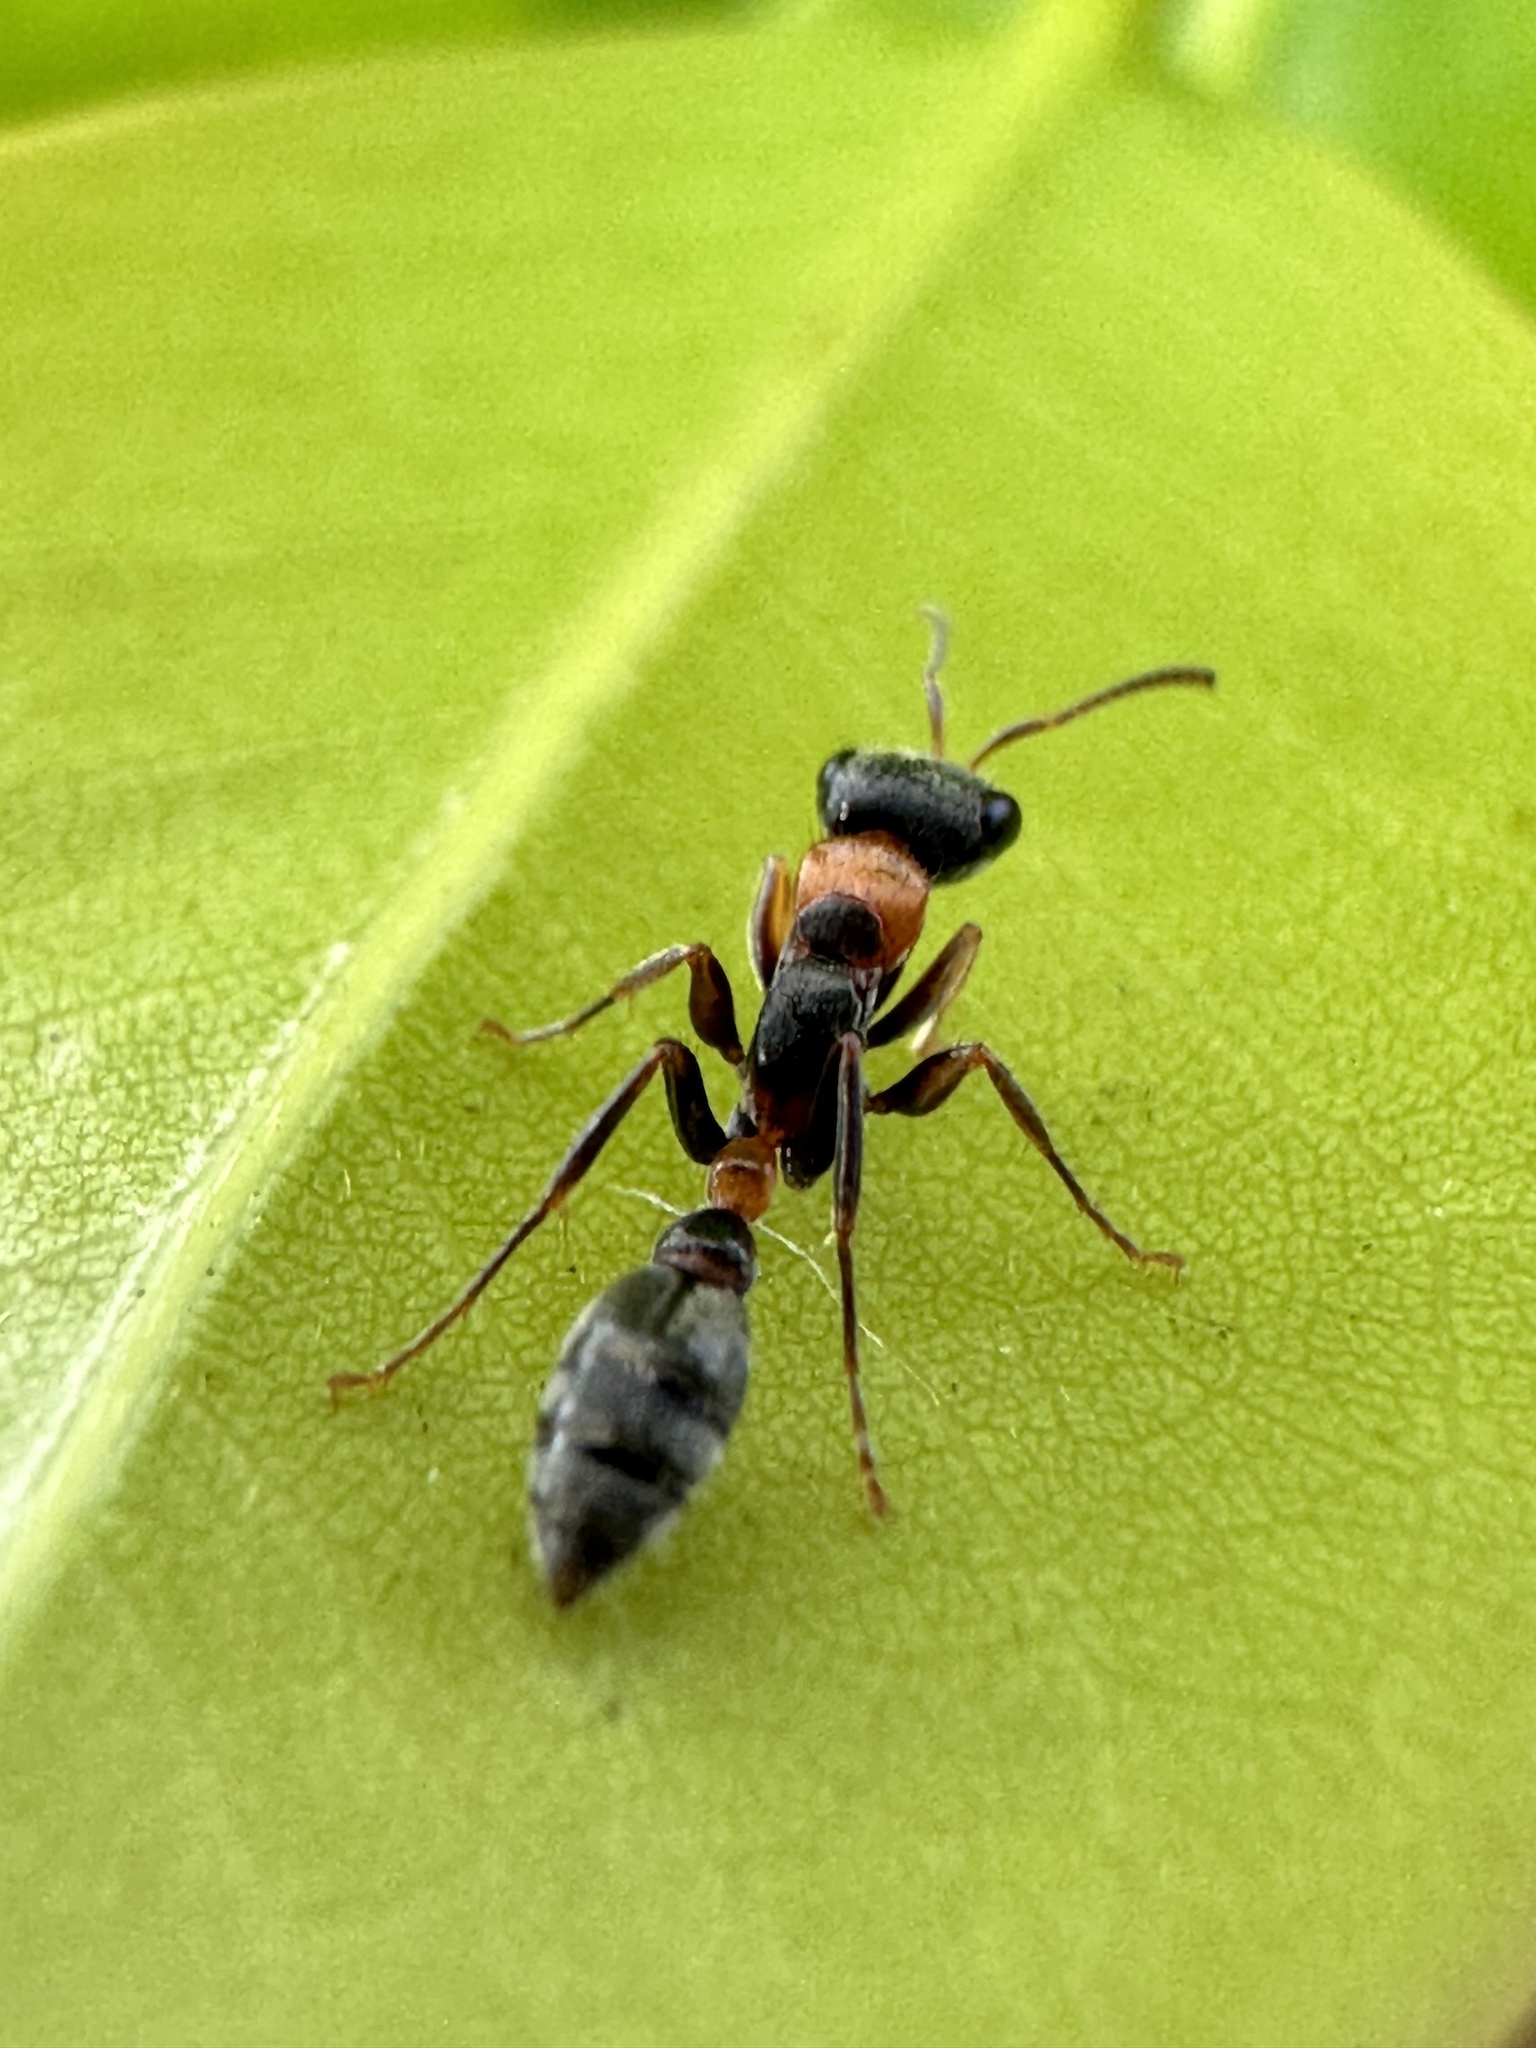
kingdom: Animalia
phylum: Arthropoda
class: Insecta
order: Hymenoptera
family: Formicidae
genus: Pseudomyrmex
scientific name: Pseudomyrmex gracilis
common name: Graceful twig ant
